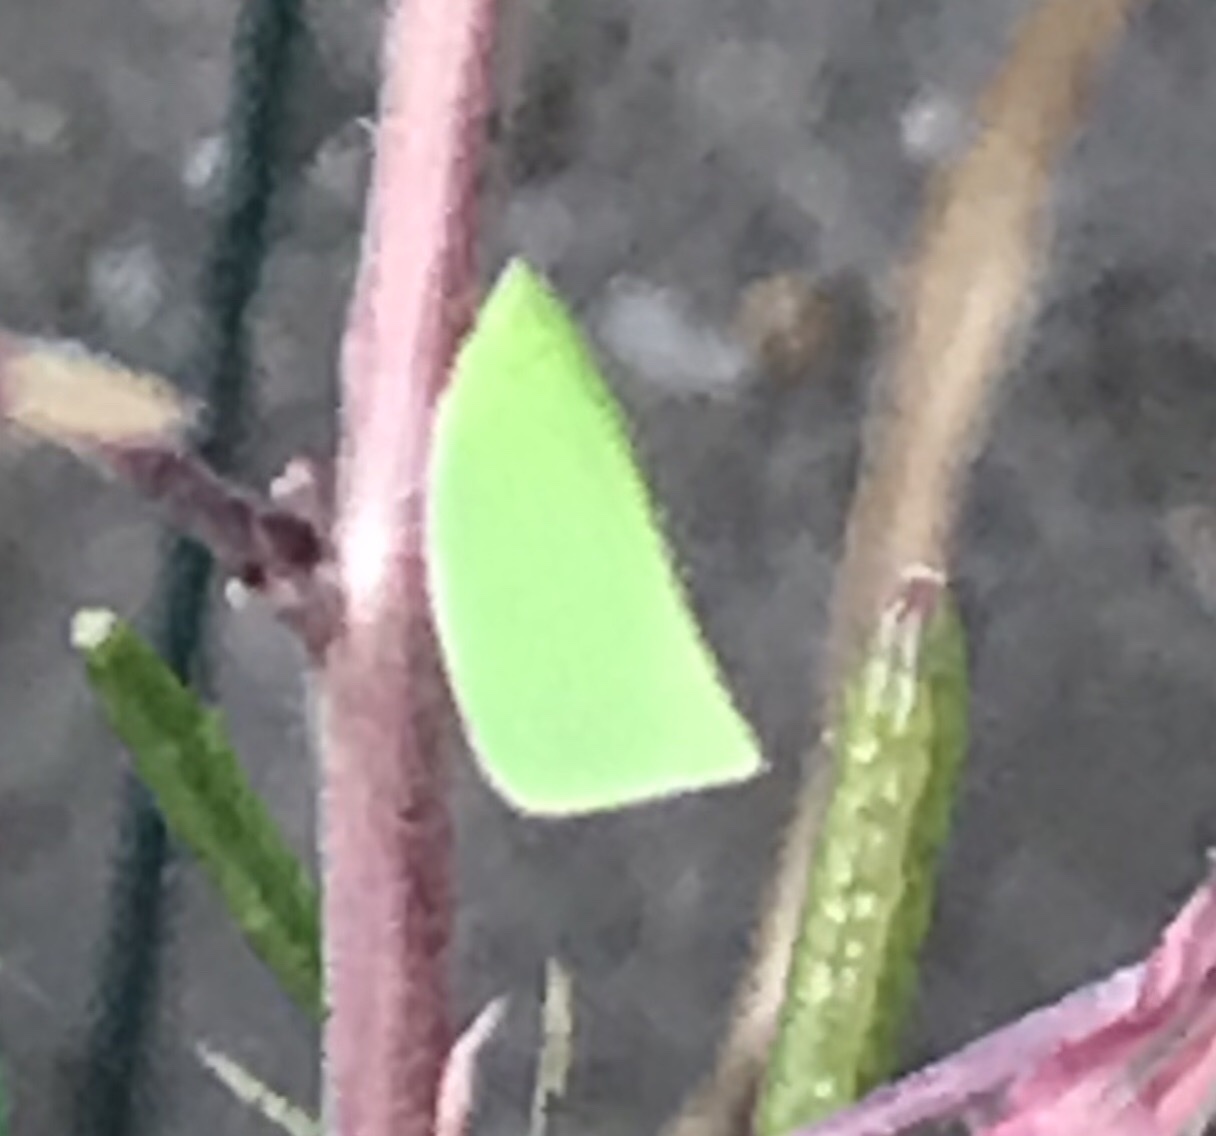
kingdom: Animalia
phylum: Arthropoda
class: Insecta
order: Hemiptera
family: Flatidae
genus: Siphanta
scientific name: Siphanta acuta
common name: Torpedo bug
